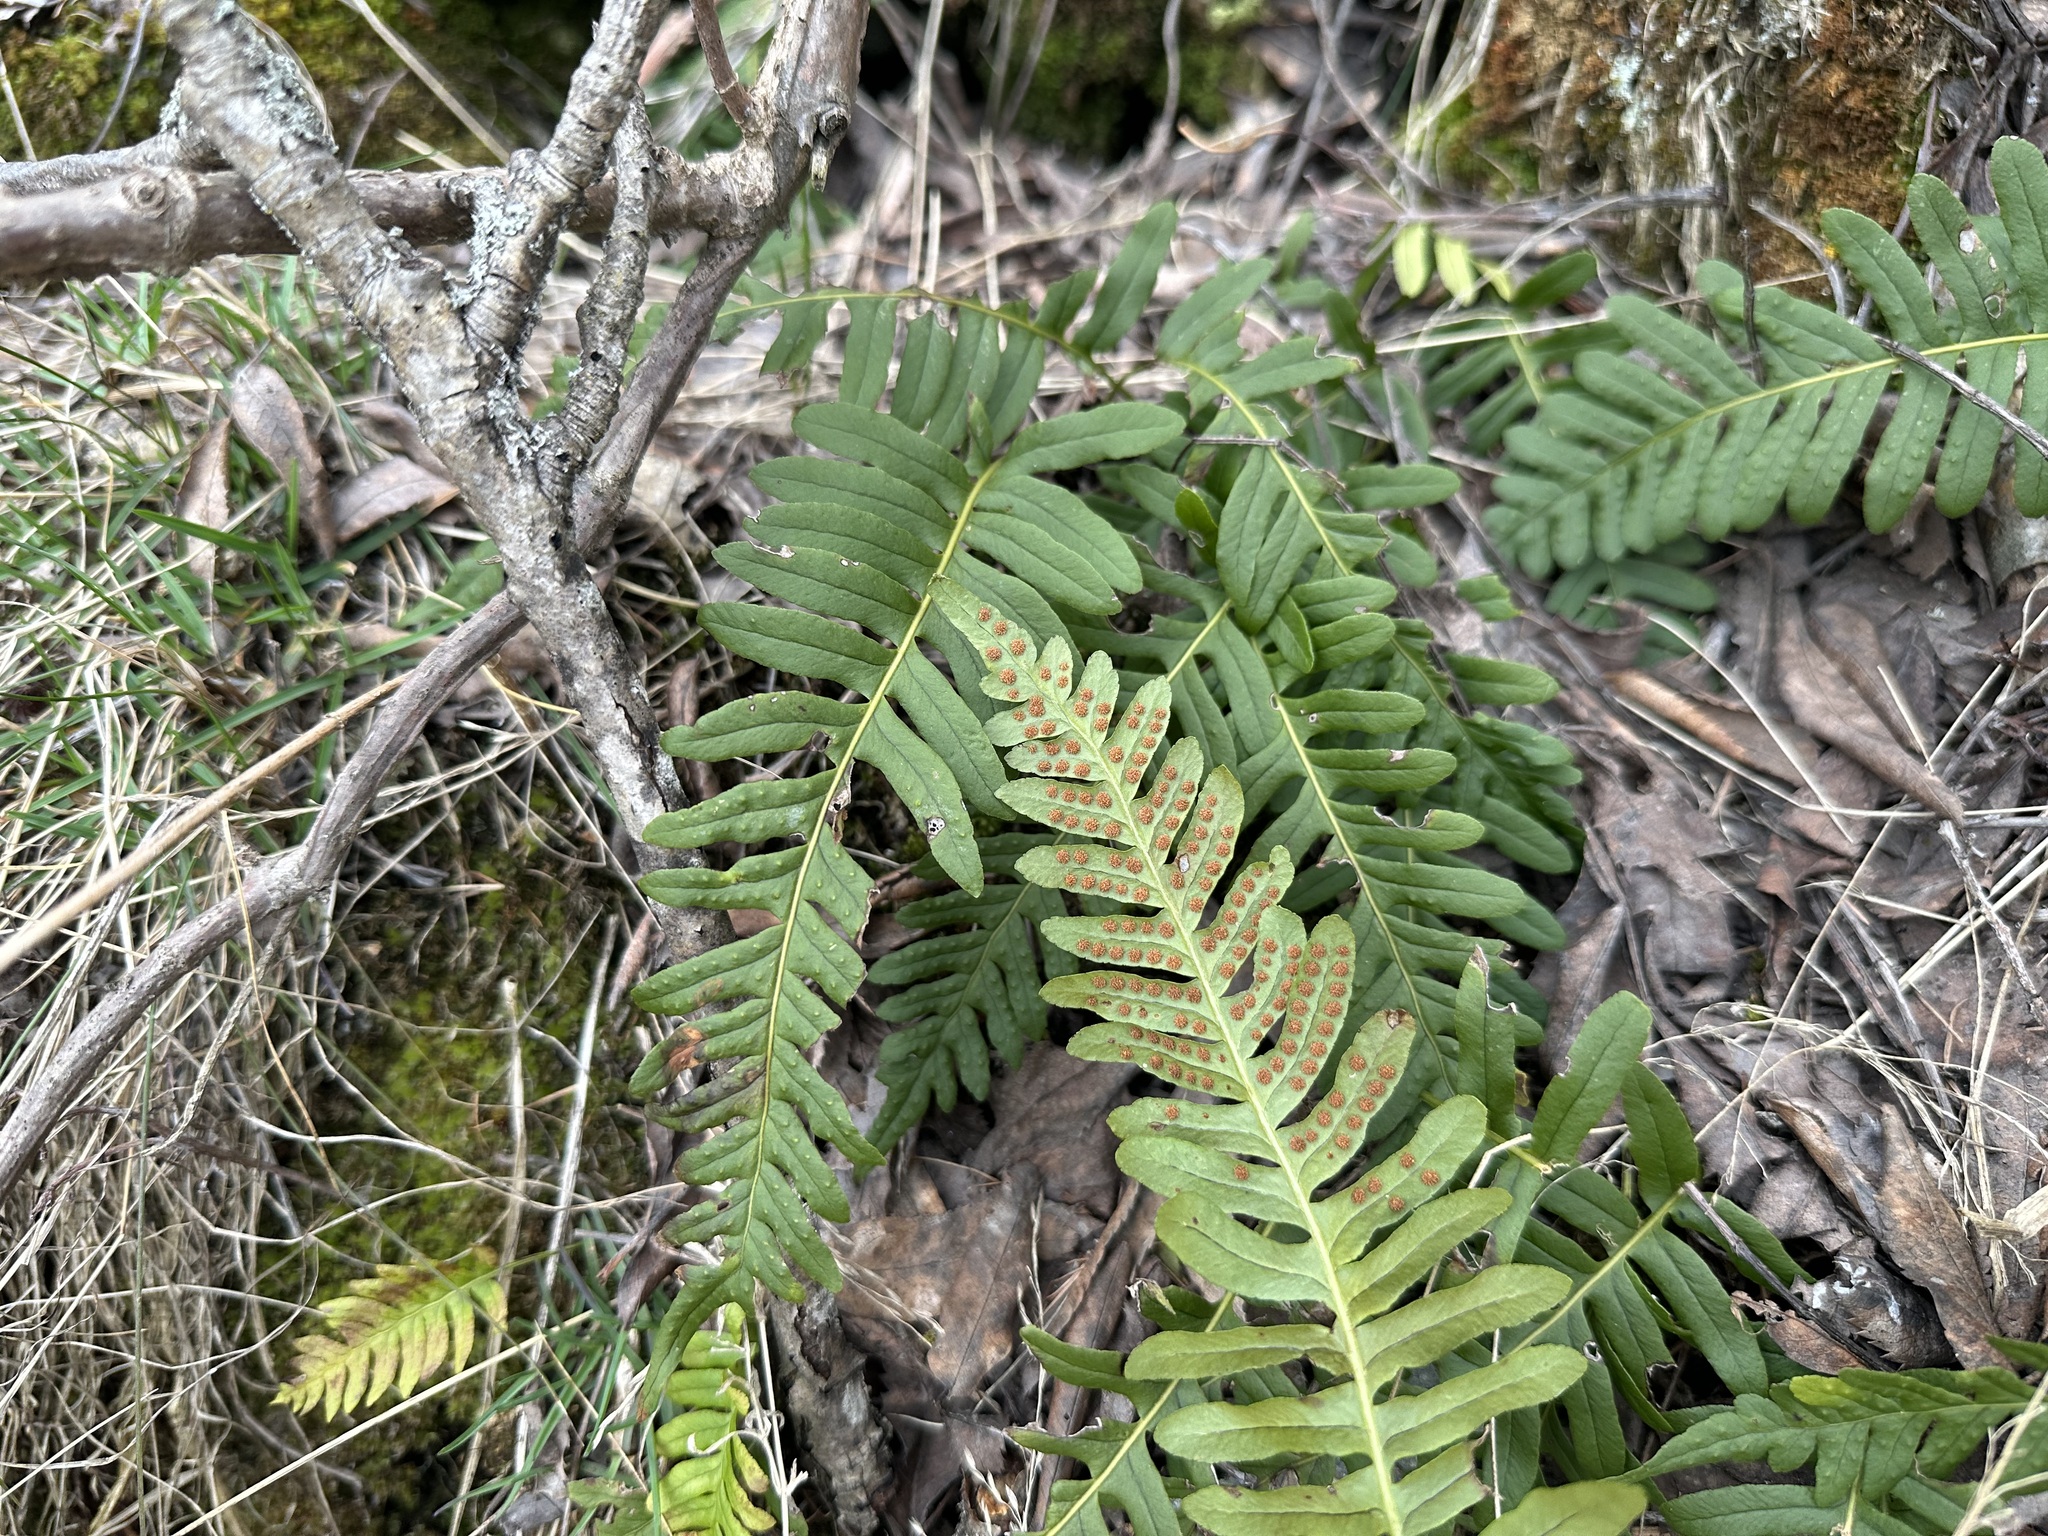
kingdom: Plantae
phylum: Tracheophyta
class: Polypodiopsida
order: Polypodiales
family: Polypodiaceae
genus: Polypodium
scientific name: Polypodium vulgare
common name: Common polypody
